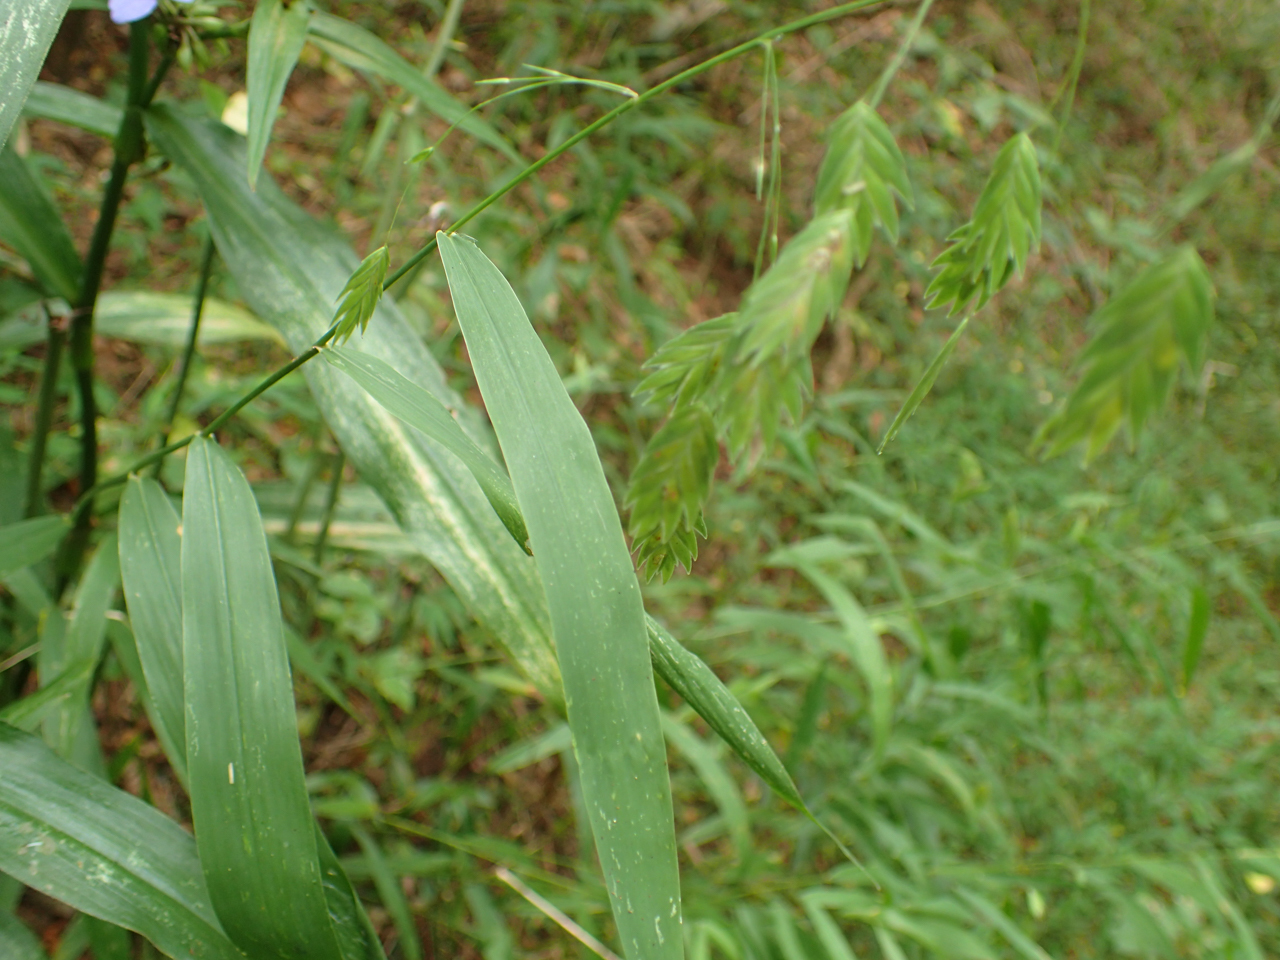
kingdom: Plantae
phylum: Tracheophyta
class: Liliopsida
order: Poales
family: Poaceae
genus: Chasmanthium
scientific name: Chasmanthium latifolium
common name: Broad-leaved chasmanthium
